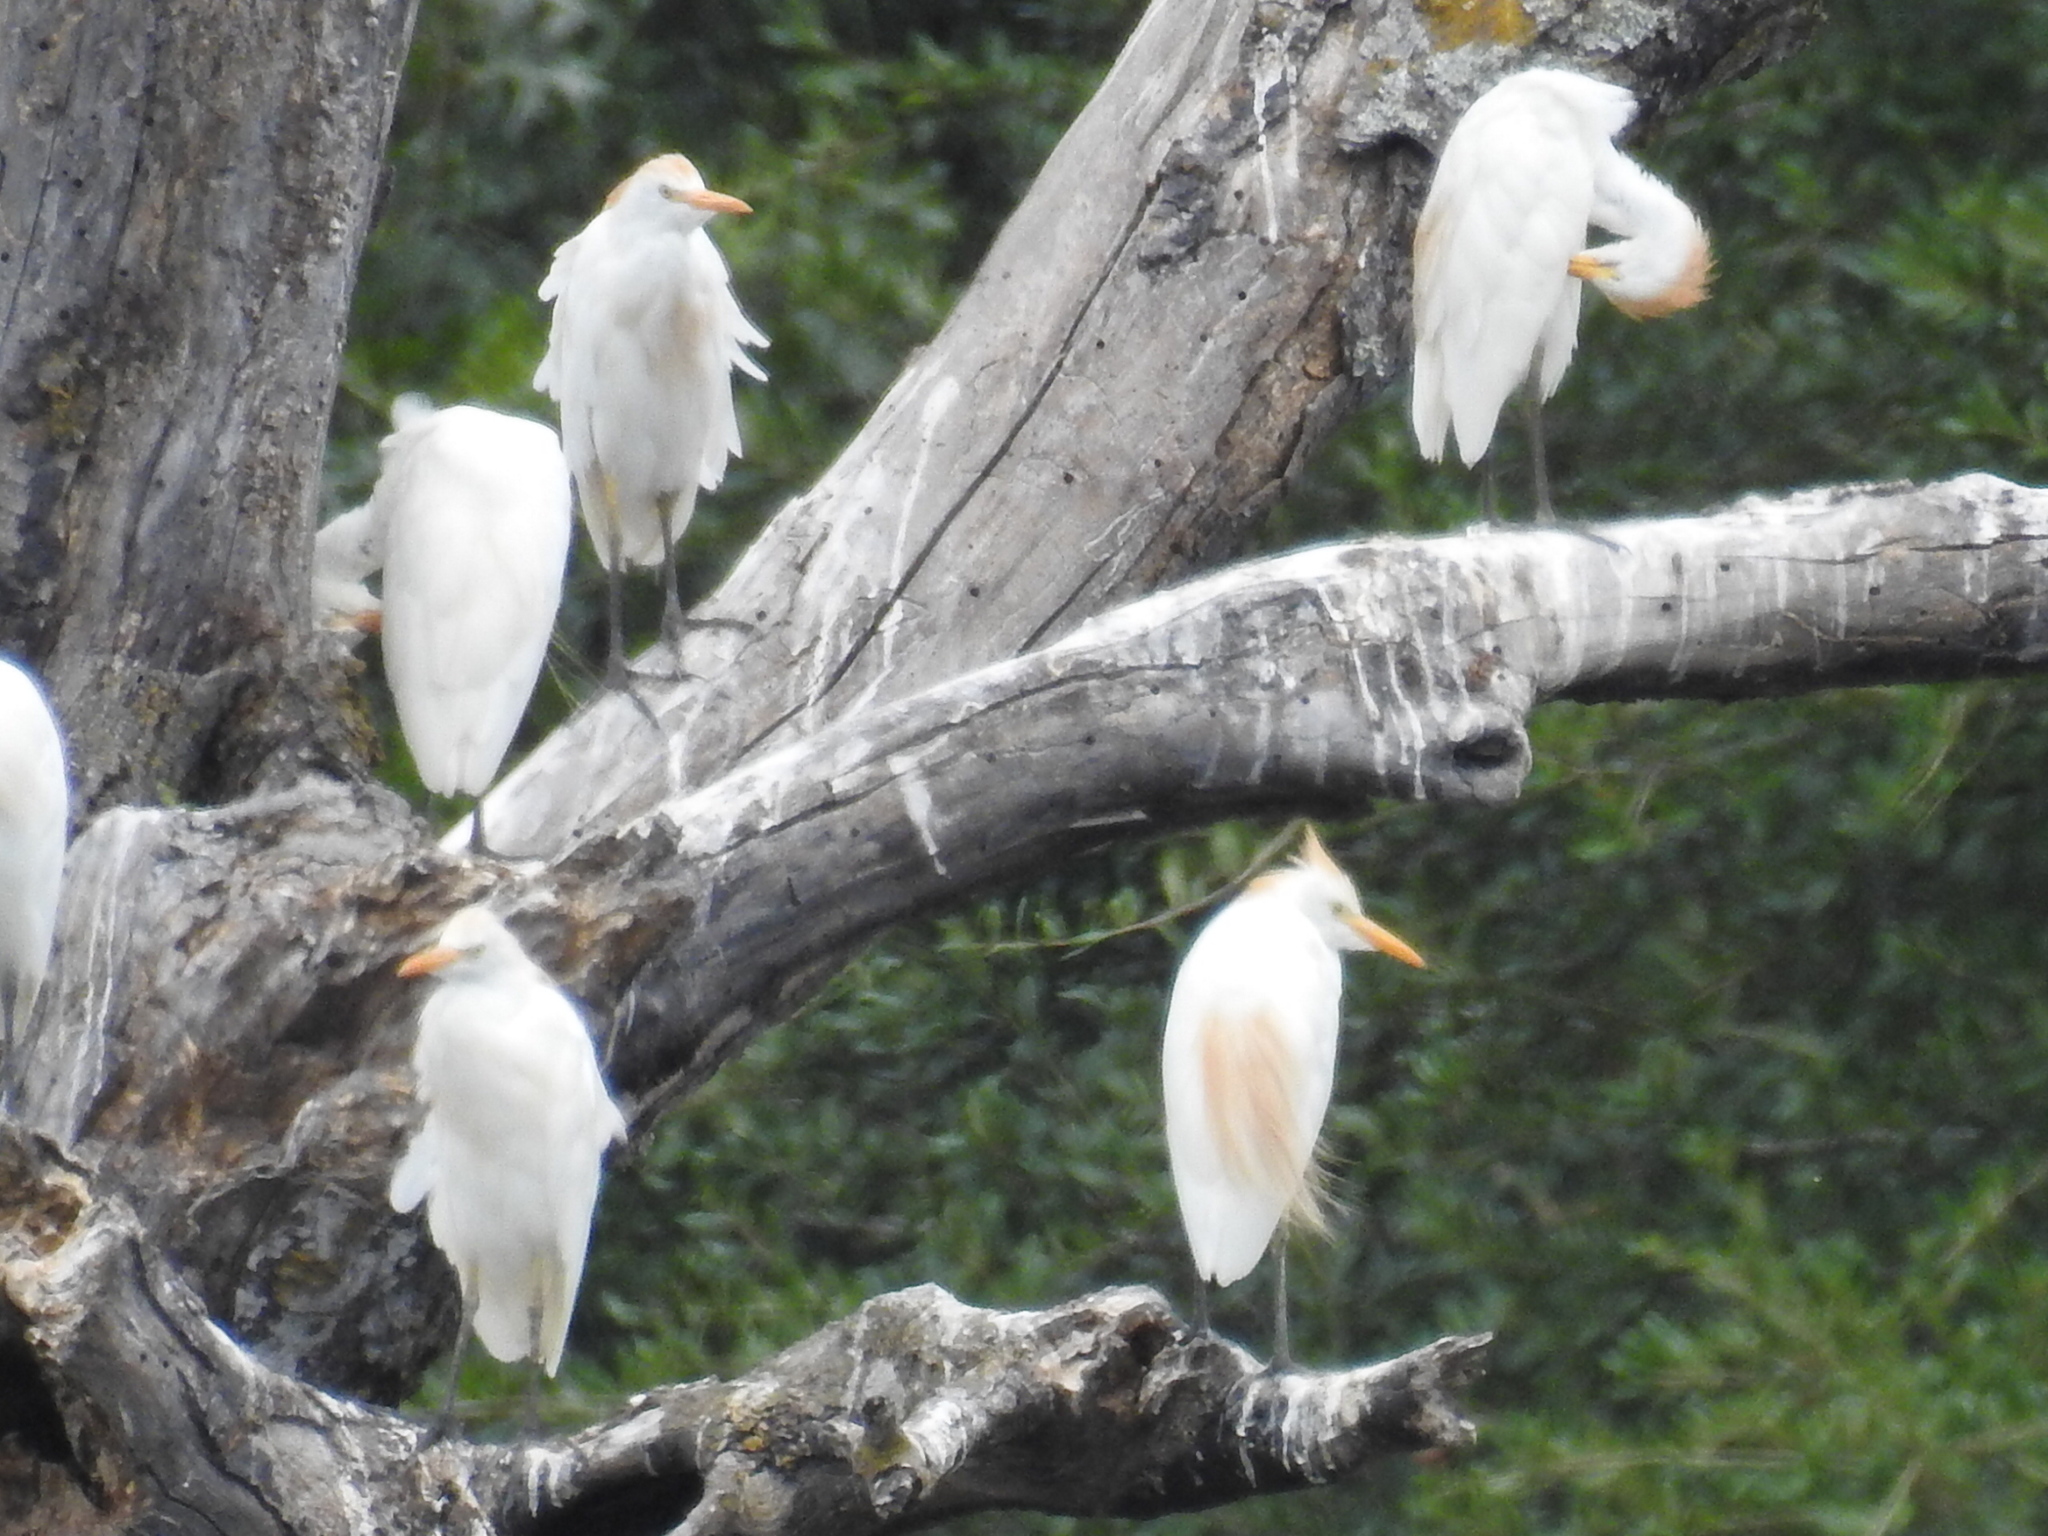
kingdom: Animalia
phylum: Chordata
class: Aves
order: Pelecaniformes
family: Ardeidae
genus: Bubulcus
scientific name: Bubulcus ibis
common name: Cattle egret
